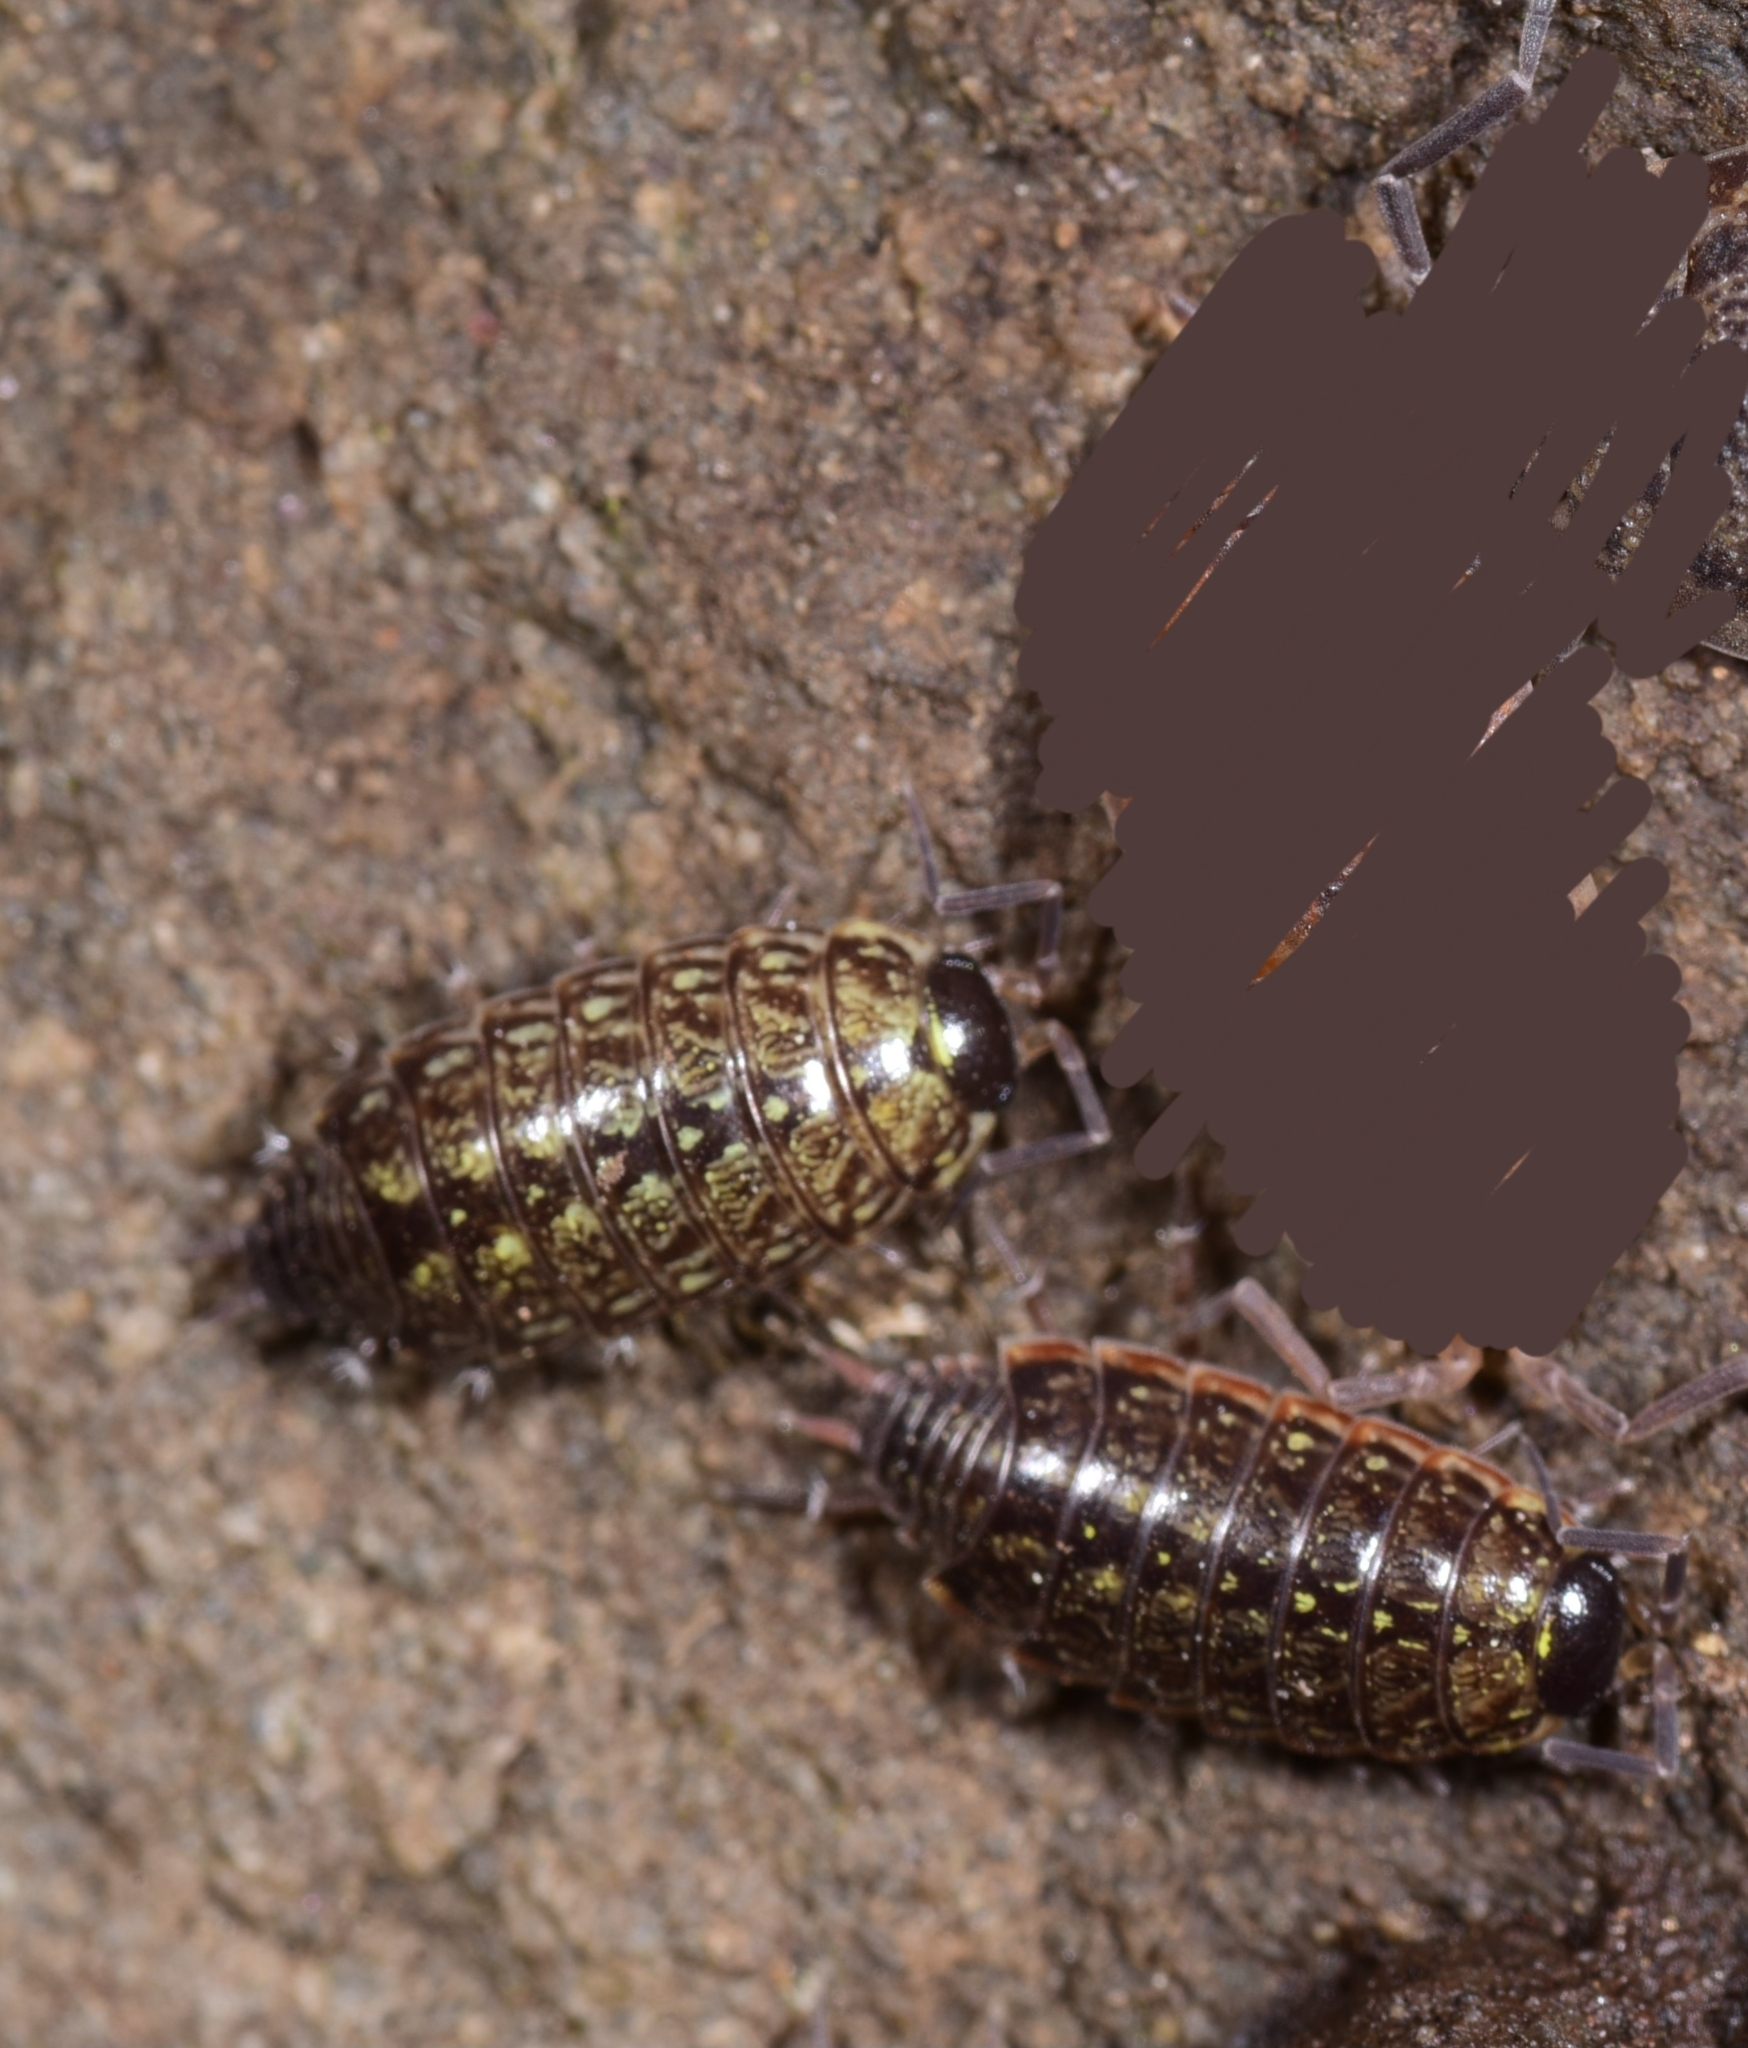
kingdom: Animalia
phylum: Arthropoda
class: Malacostraca
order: Isopoda
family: Philosciidae
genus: Philoscia
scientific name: Philoscia muscorum
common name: Common striped woodlouse
